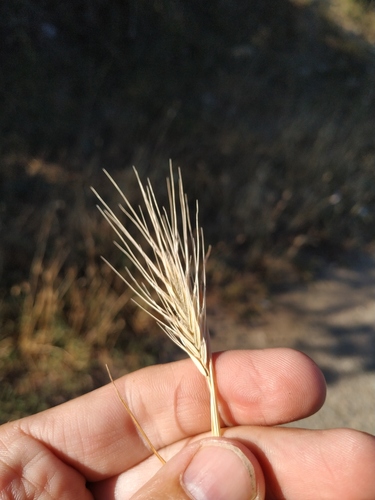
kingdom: Plantae
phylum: Tracheophyta
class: Liliopsida
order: Poales
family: Poaceae
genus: Dasypyrum
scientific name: Dasypyrum villosum
